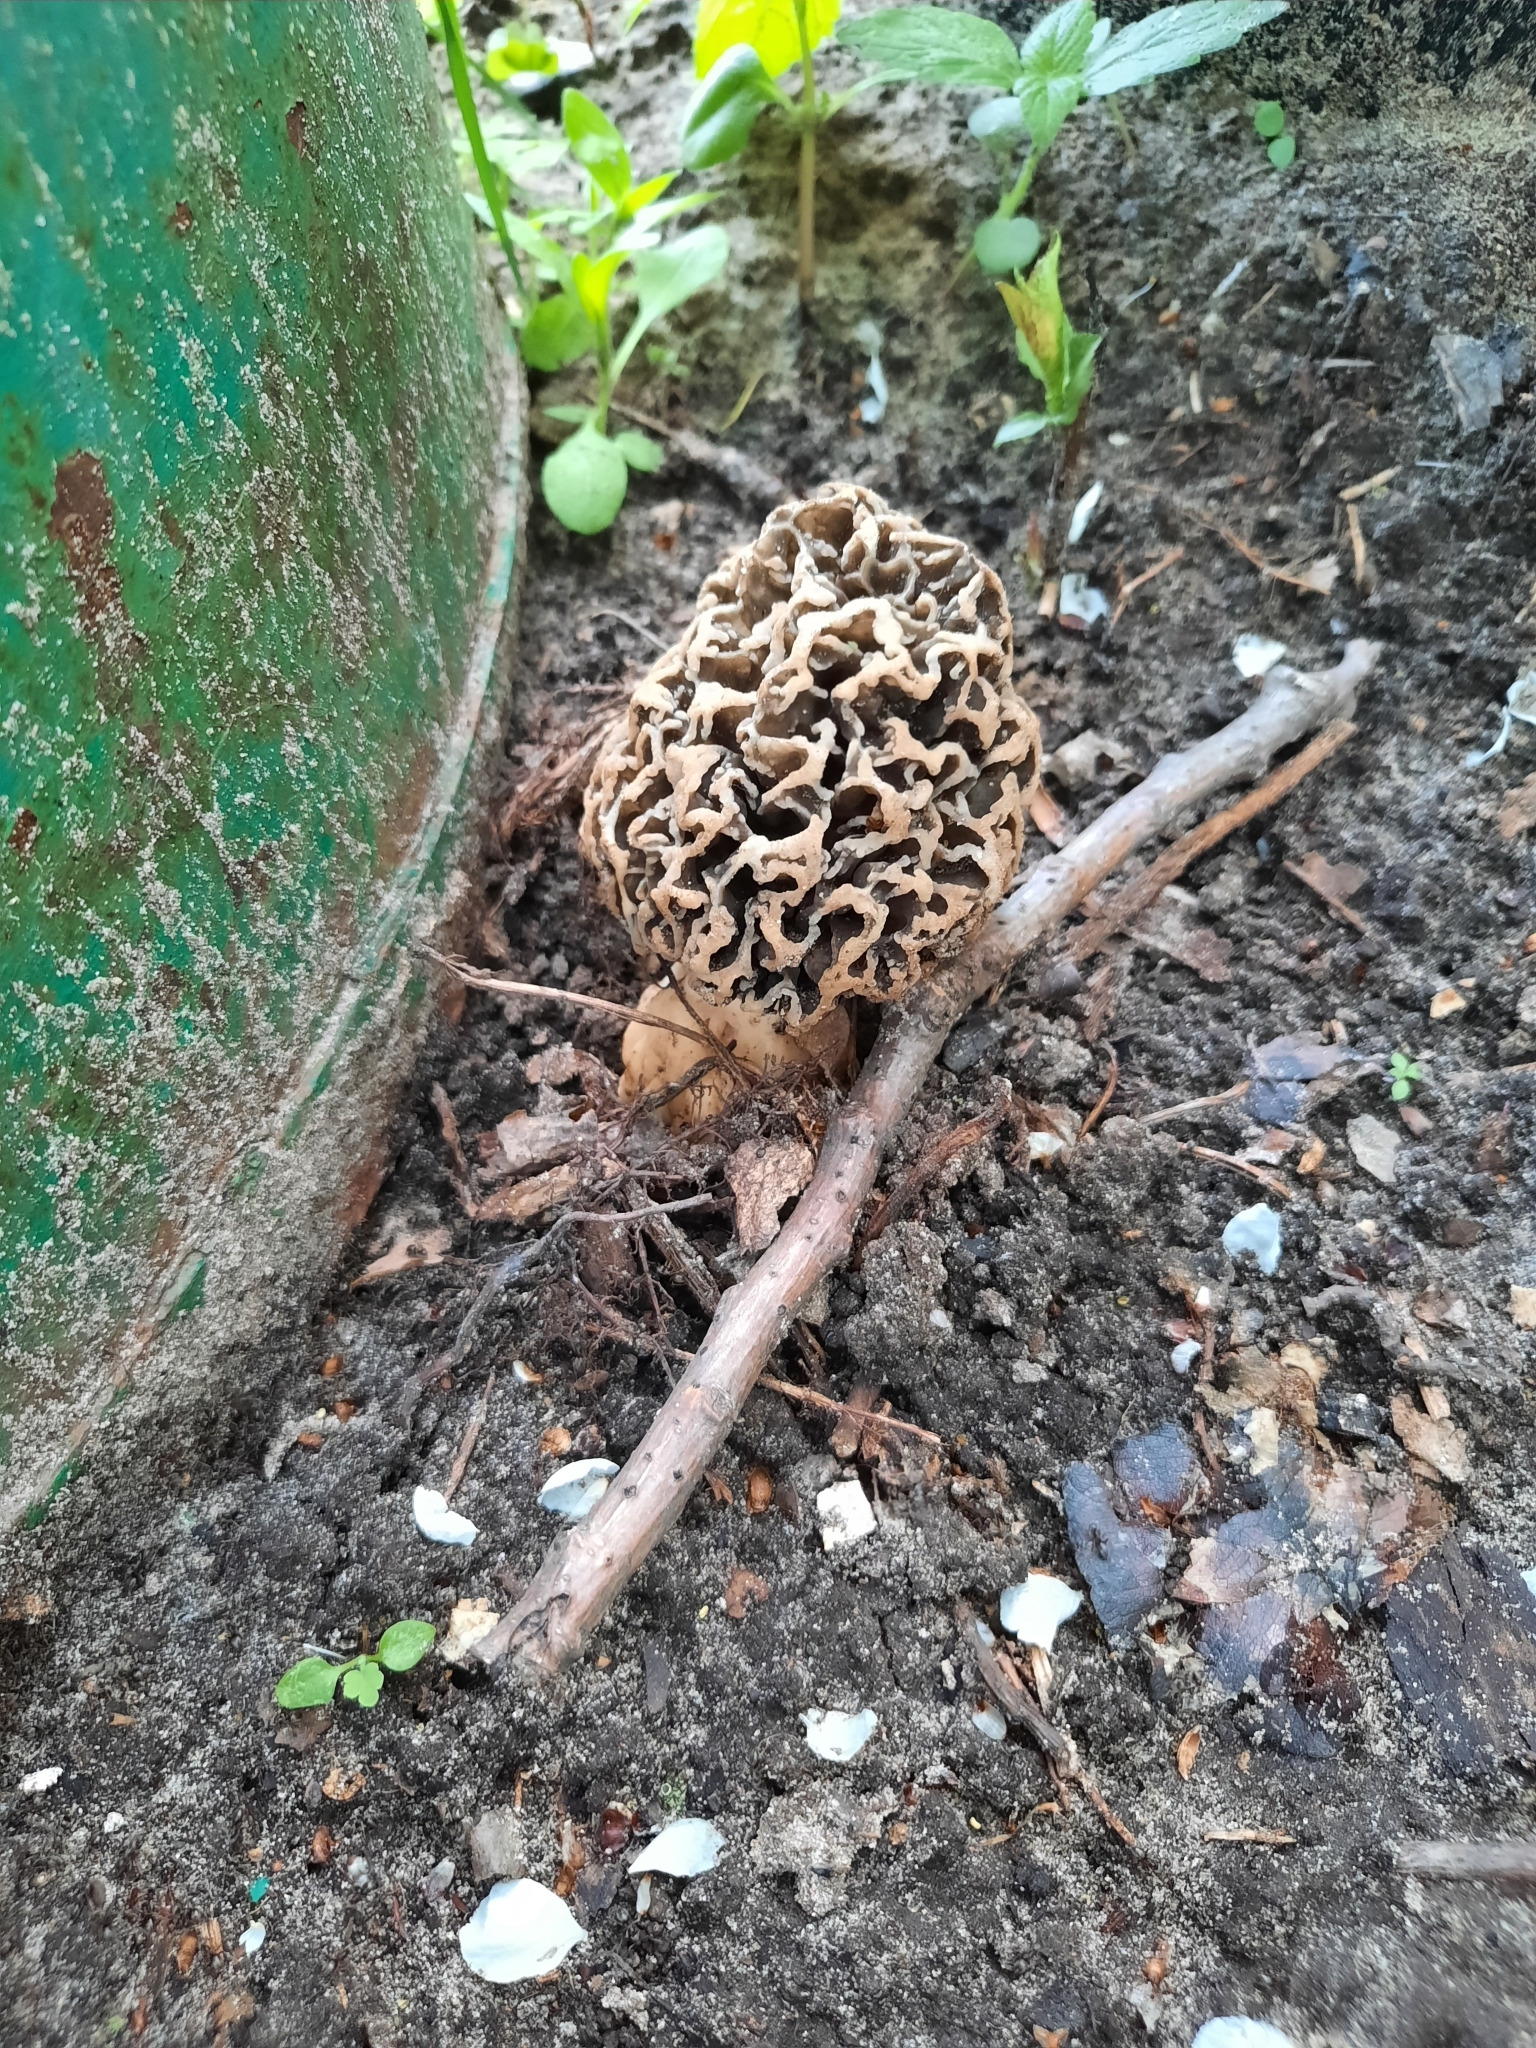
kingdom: Fungi
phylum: Ascomycota
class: Pezizomycetes
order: Pezizales
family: Morchellaceae
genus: Morchella
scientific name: Morchella vulgaris
